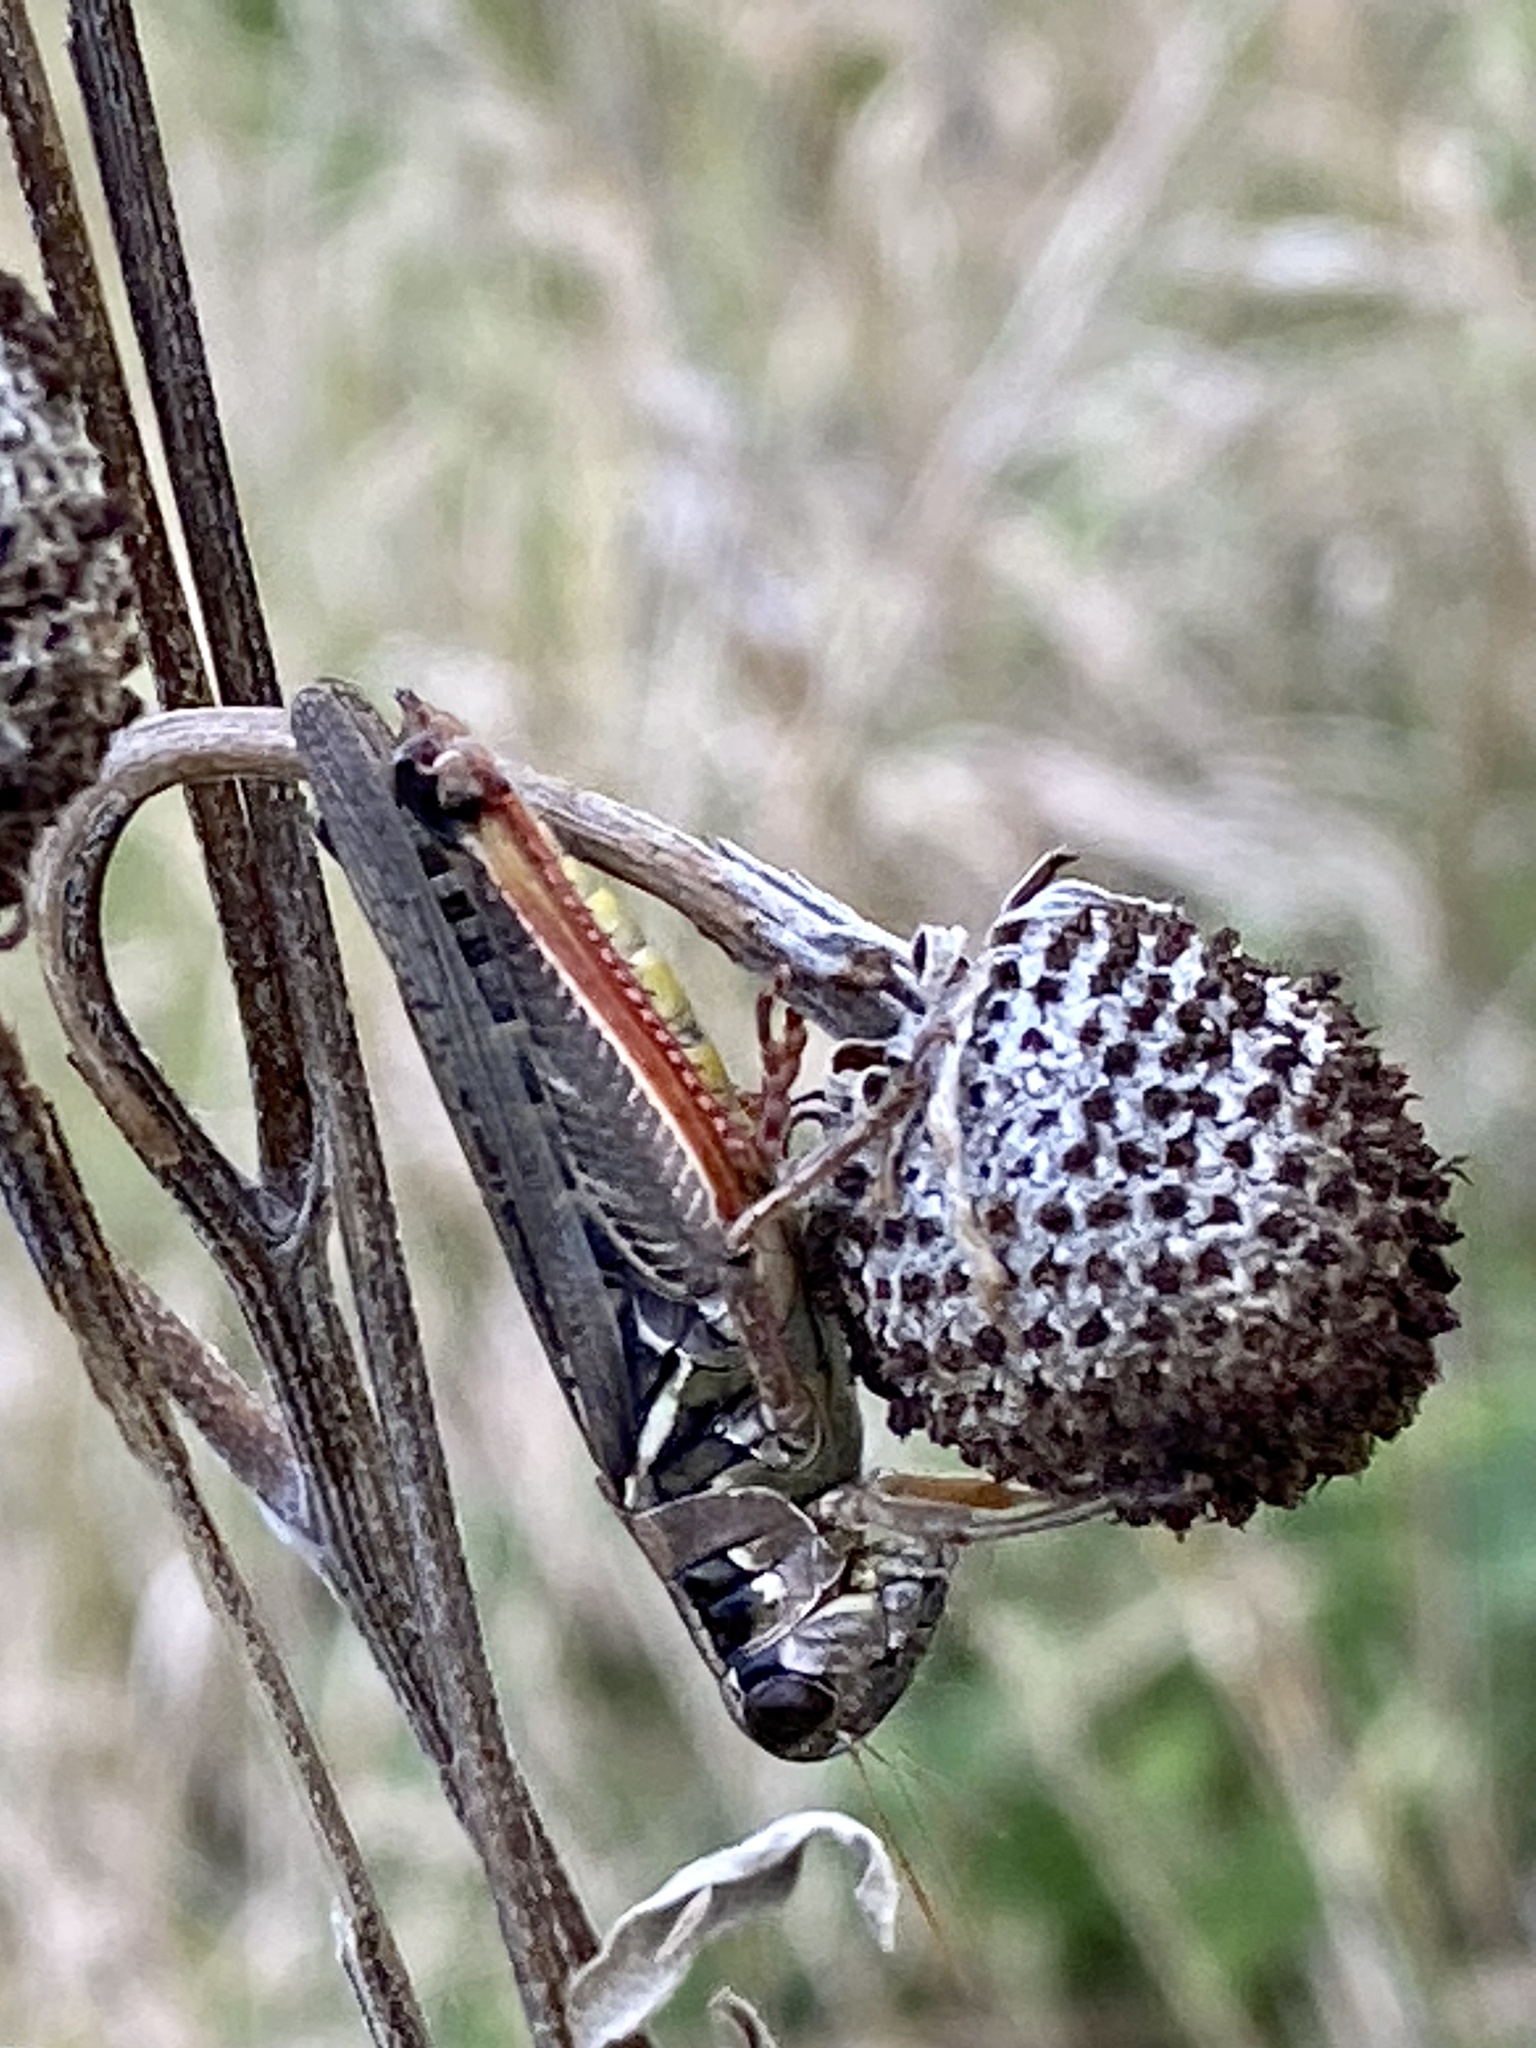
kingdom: Animalia
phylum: Arthropoda
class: Insecta
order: Orthoptera
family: Acrididae
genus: Melanoplus
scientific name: Melanoplus femurrubrum
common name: Red-legged grasshopper
